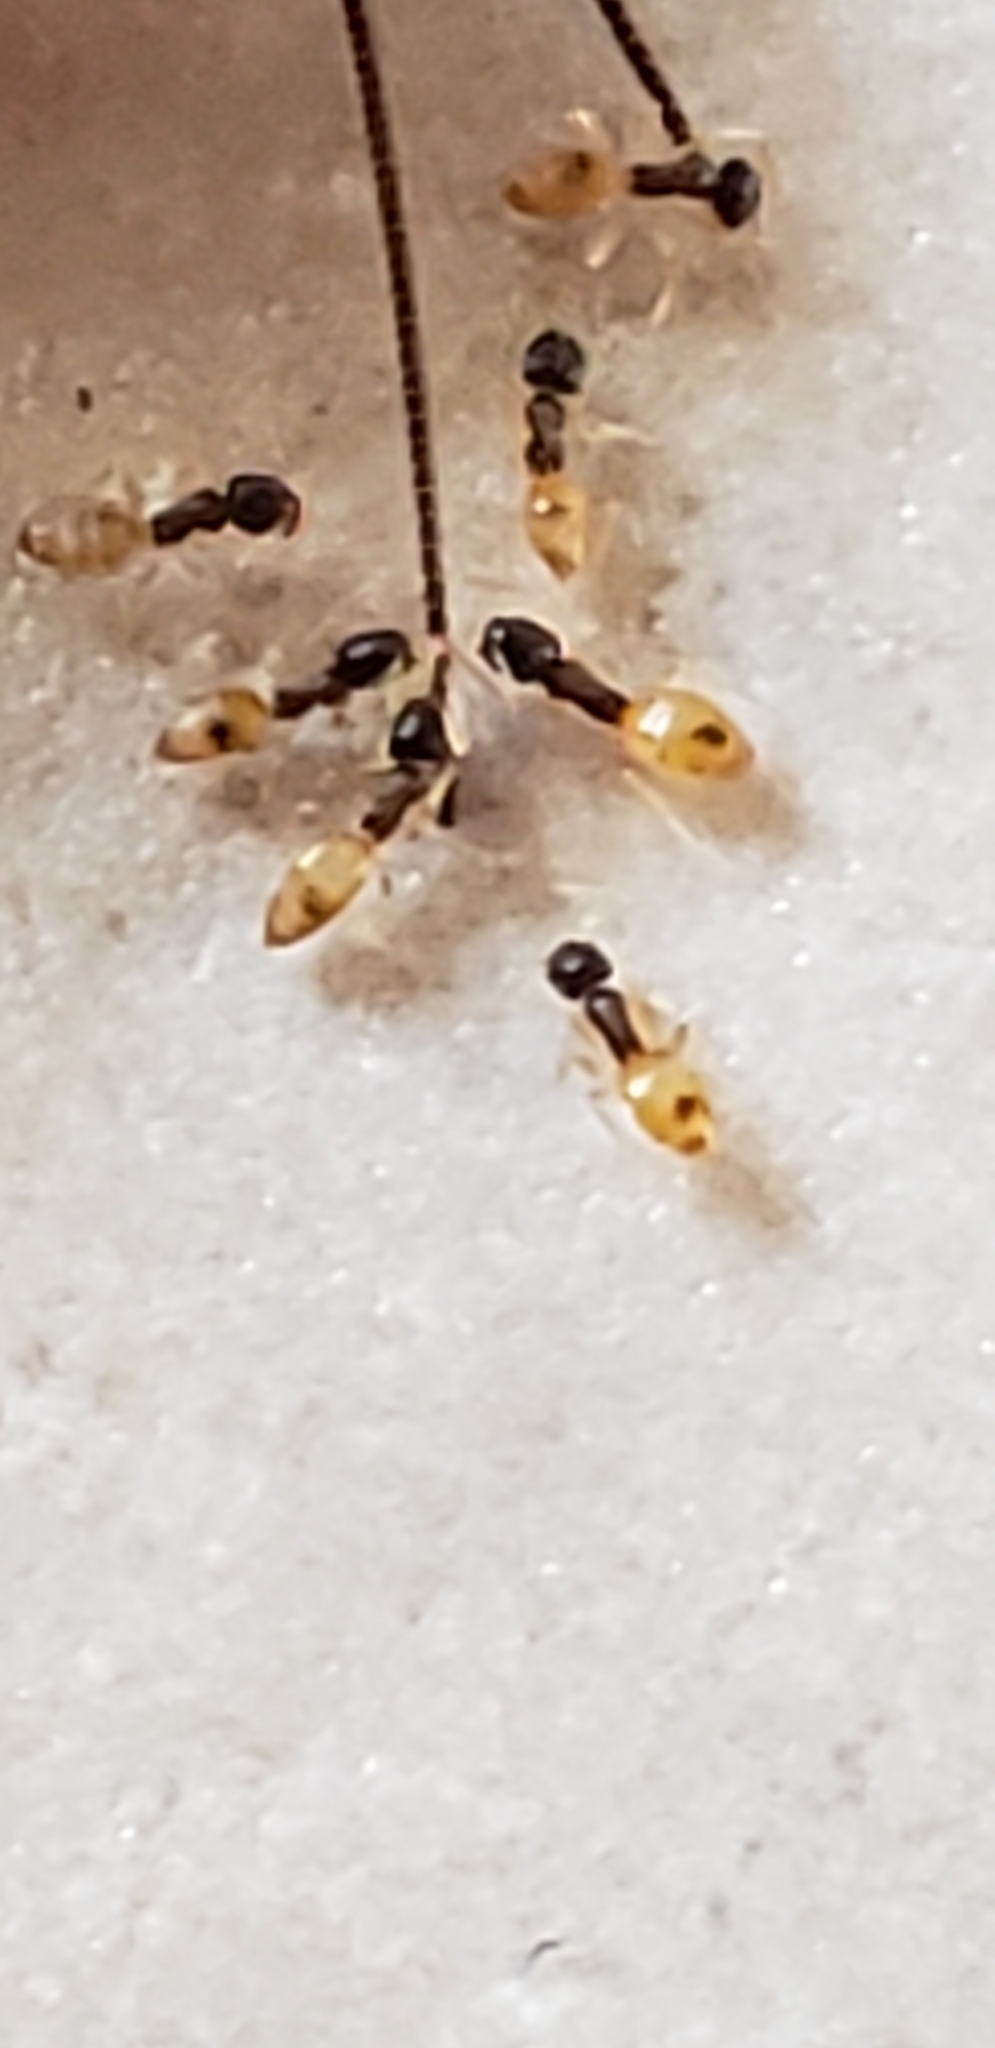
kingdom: Animalia
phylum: Arthropoda
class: Insecta
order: Hymenoptera
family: Formicidae
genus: Tapinoma
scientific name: Tapinoma melanocephalum
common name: Ghost ant
